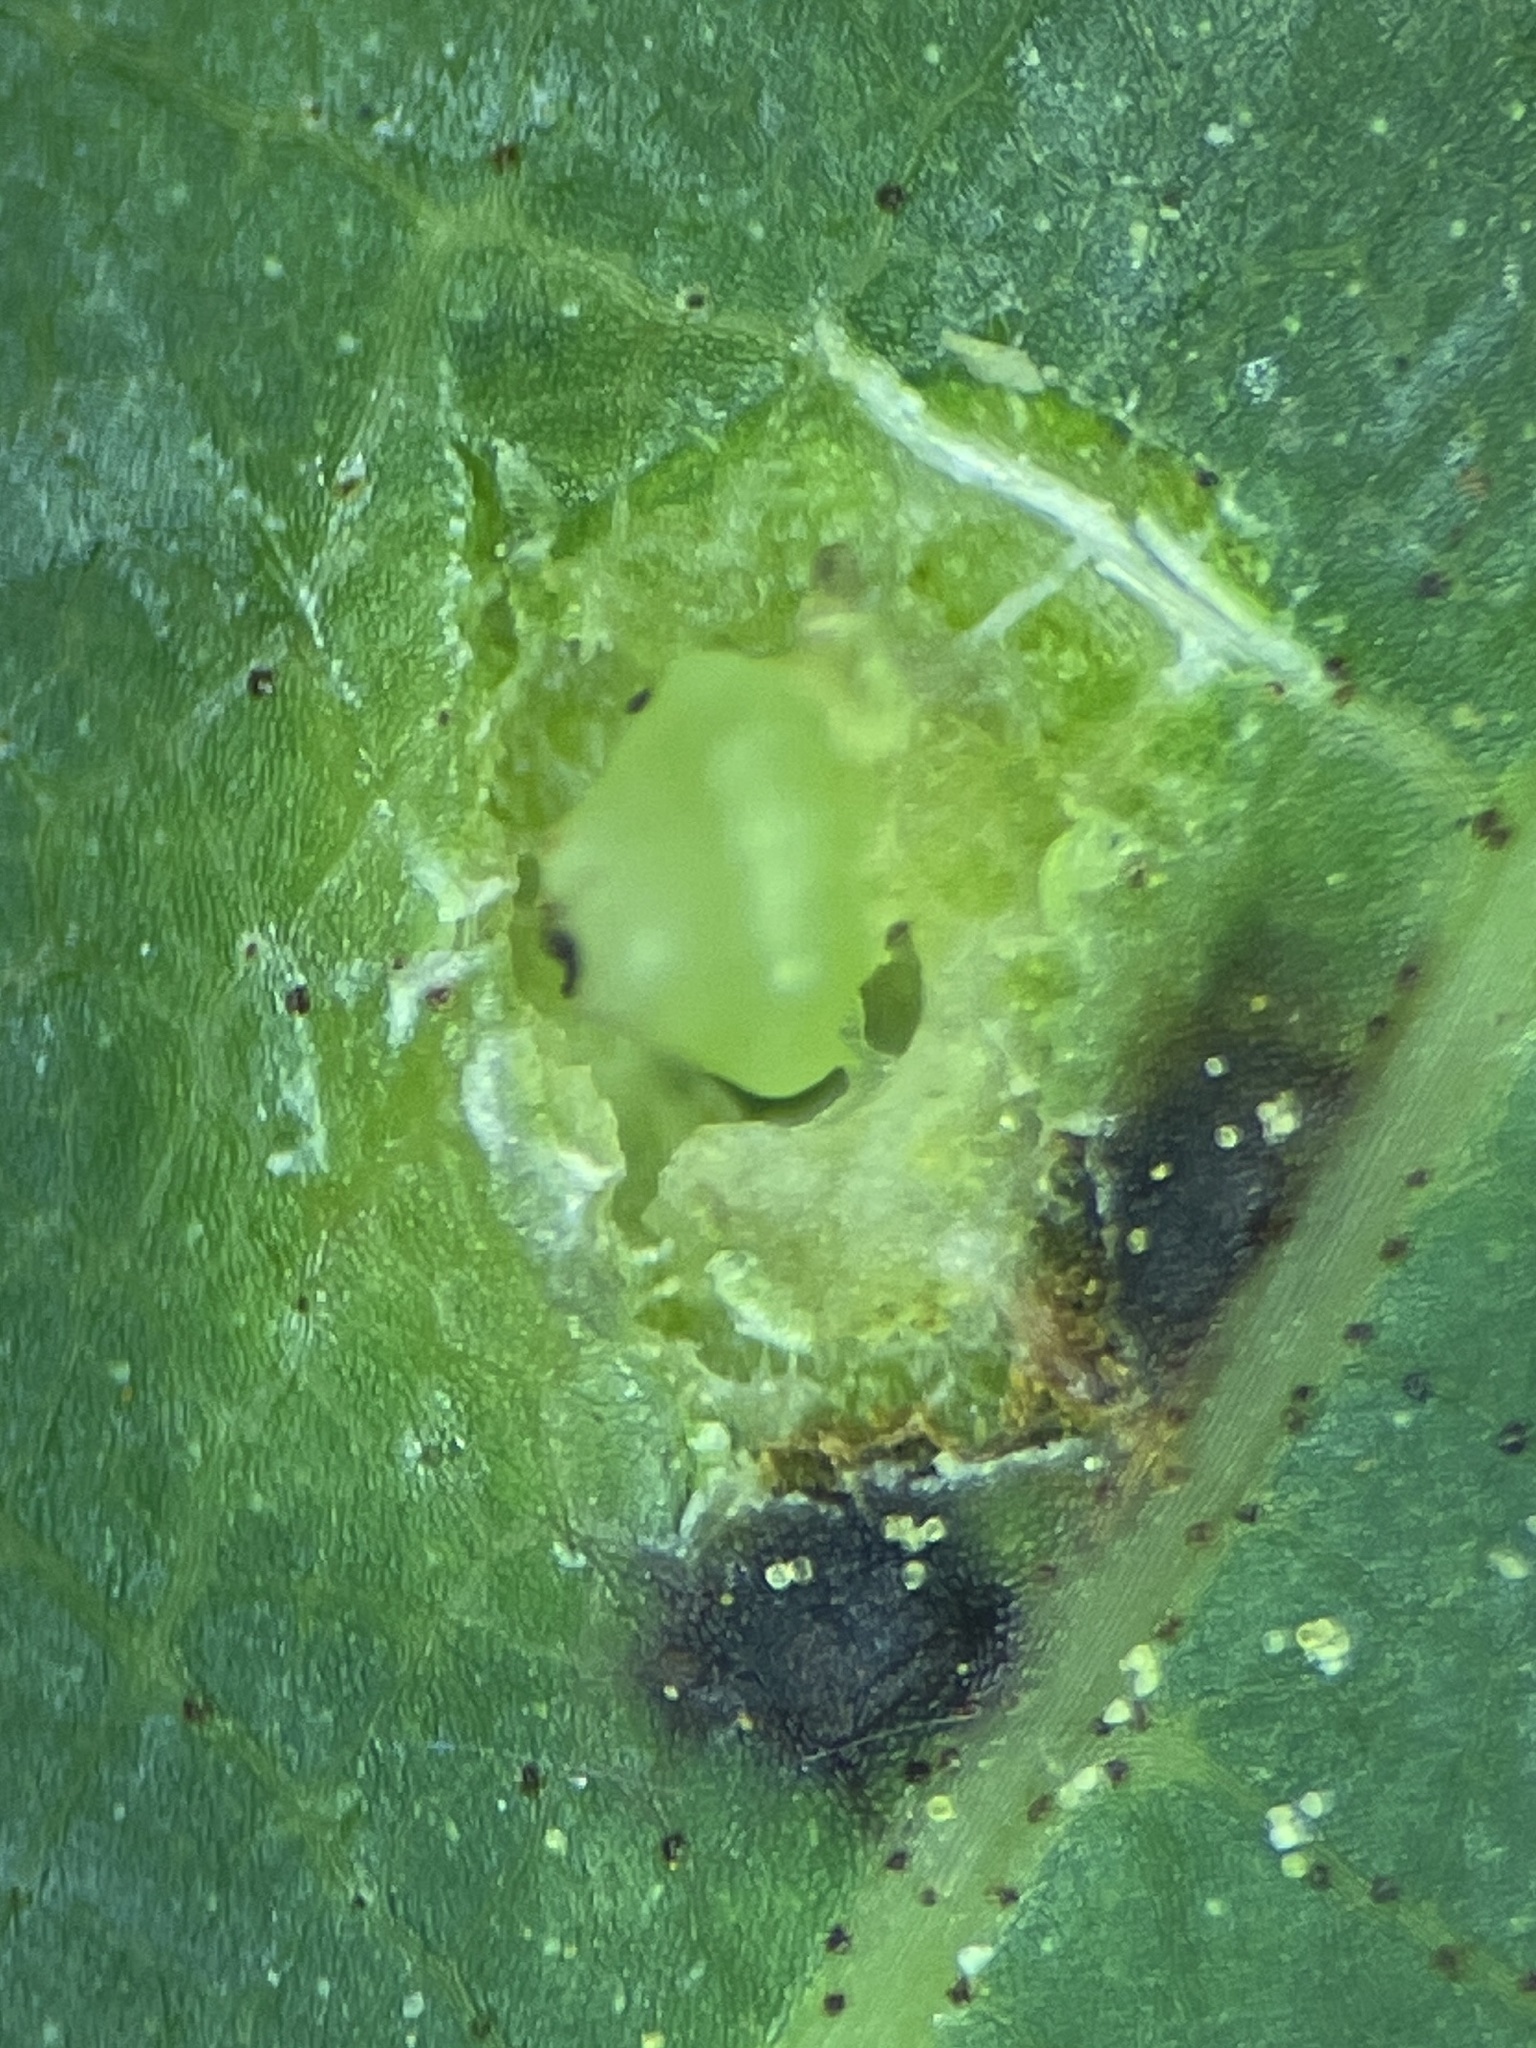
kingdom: Animalia
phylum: Arthropoda
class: Insecta
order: Diptera
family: Cecidomyiidae
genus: Caryadiplosis
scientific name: Caryadiplosis biconvexa
